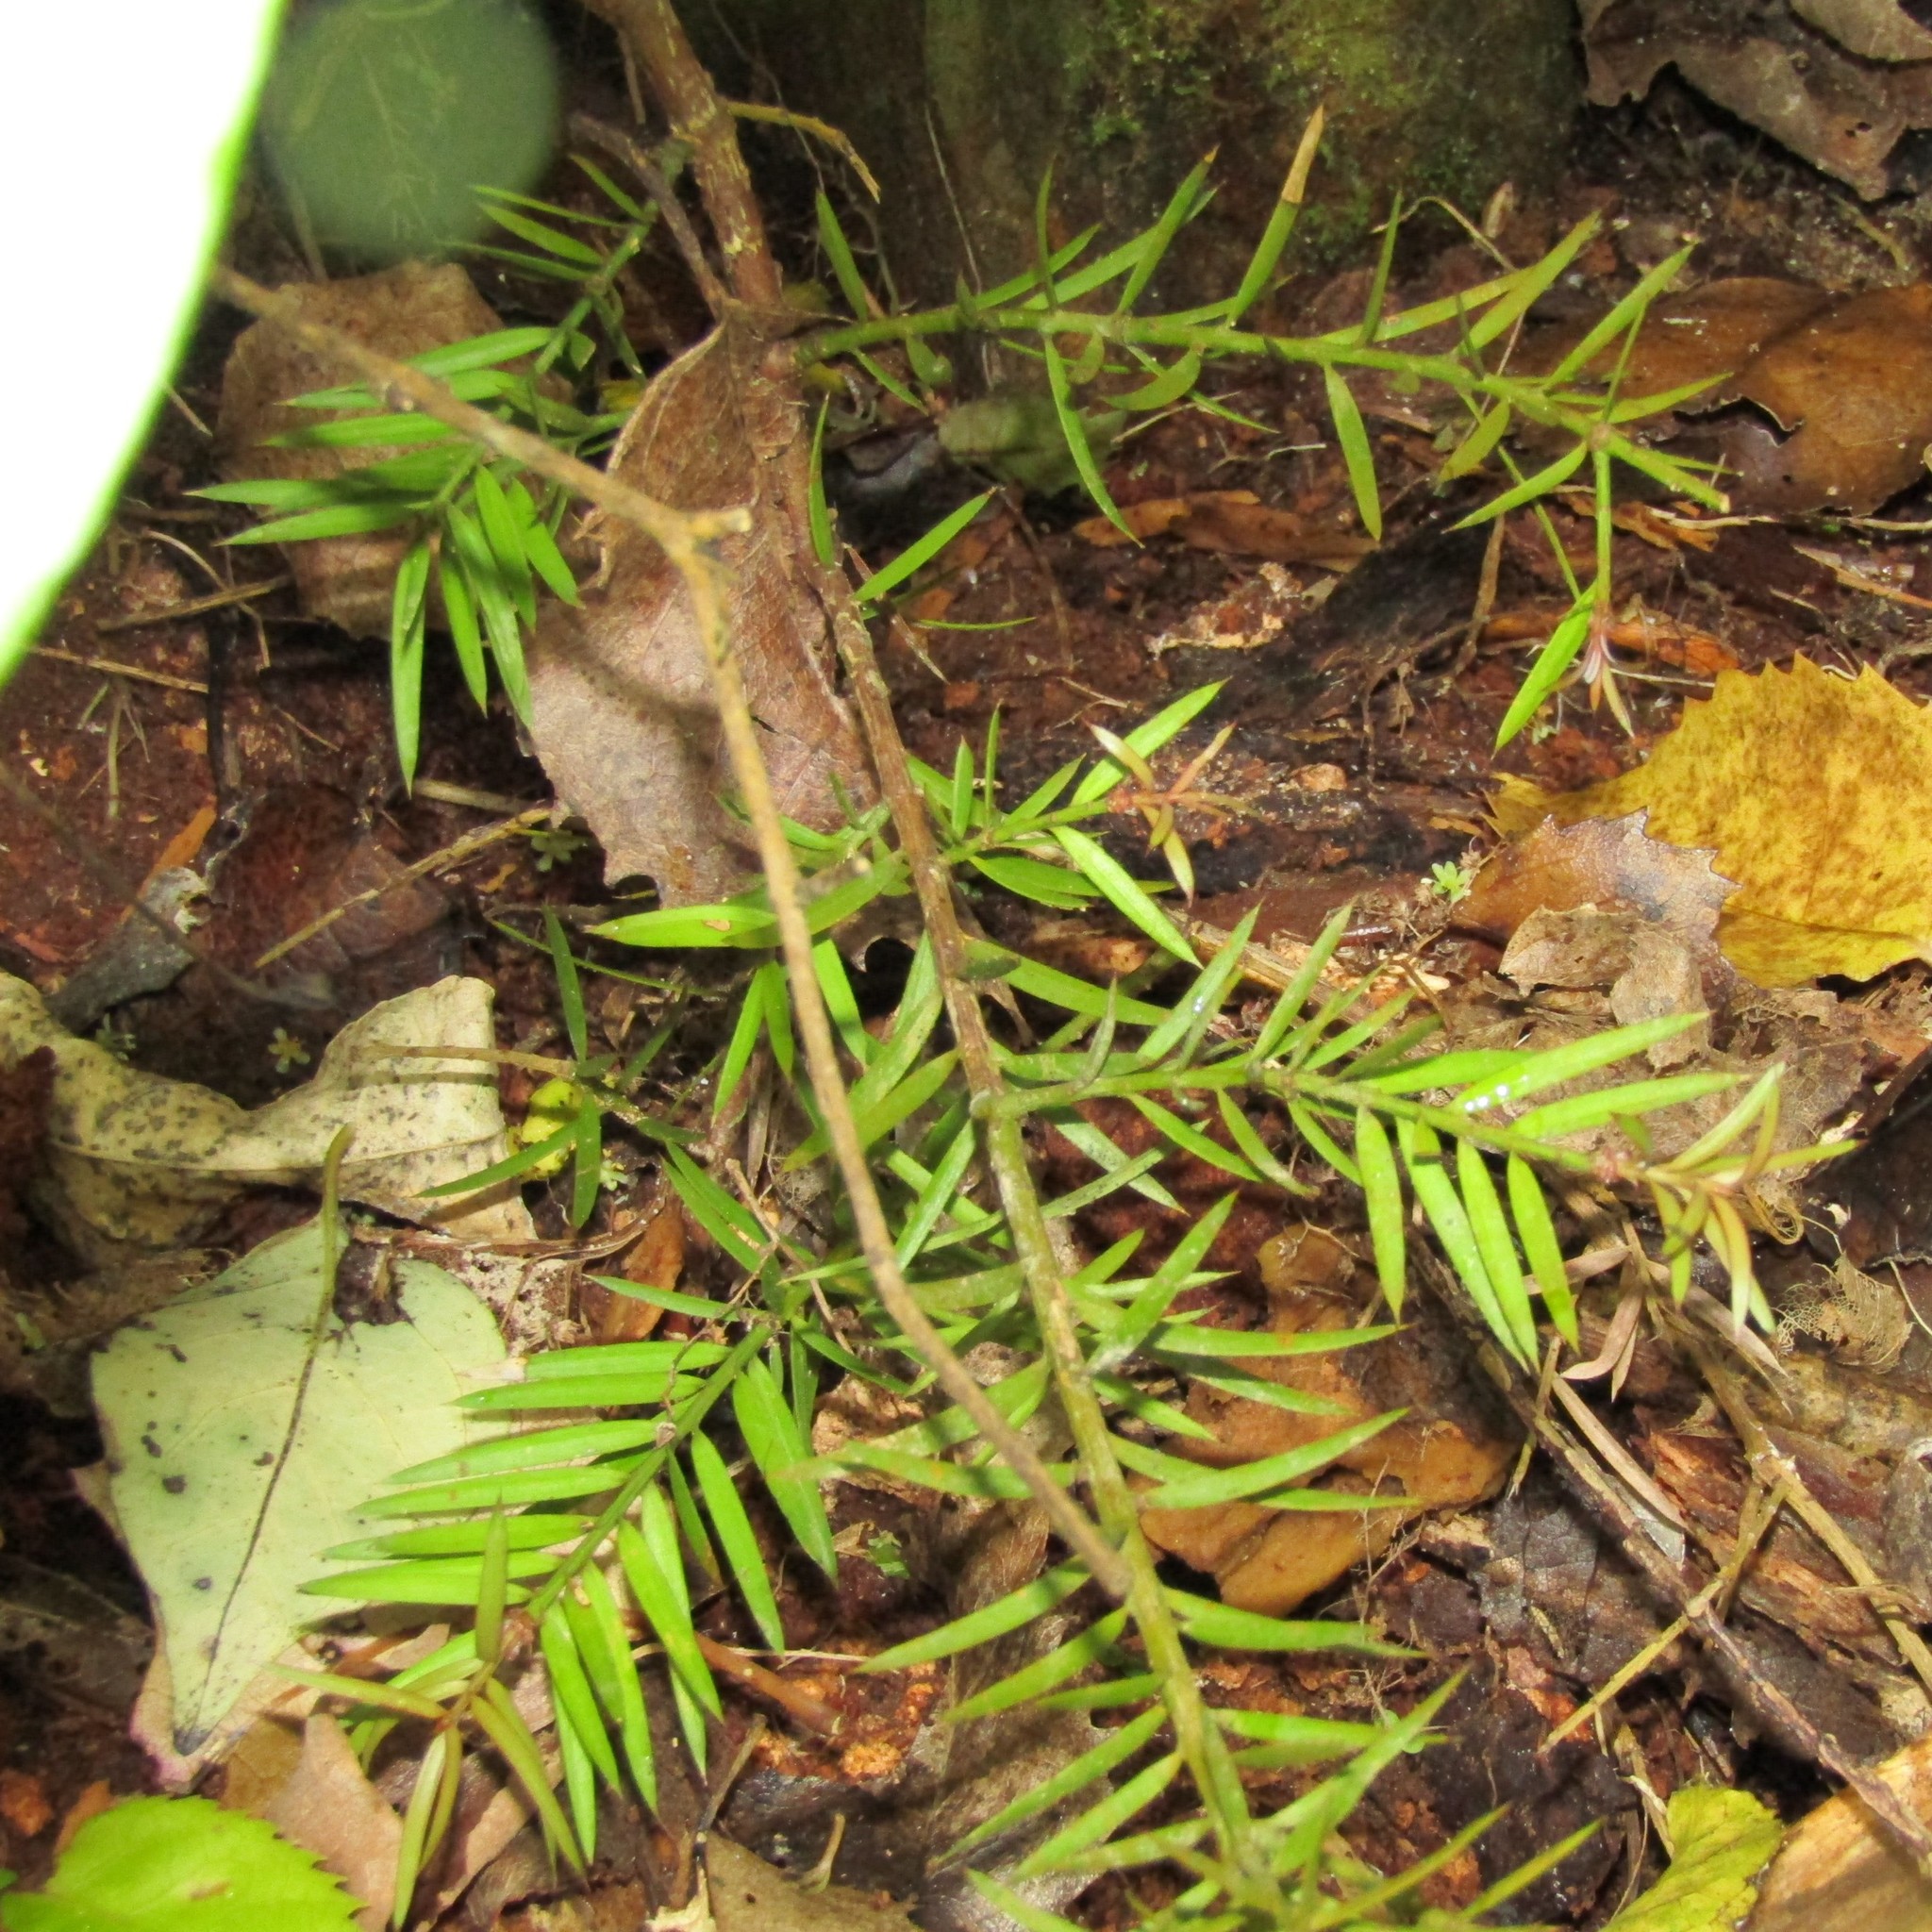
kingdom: Plantae
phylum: Tracheophyta
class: Pinopsida
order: Pinales
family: Podocarpaceae
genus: Podocarpus
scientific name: Podocarpus totara
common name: Totara
